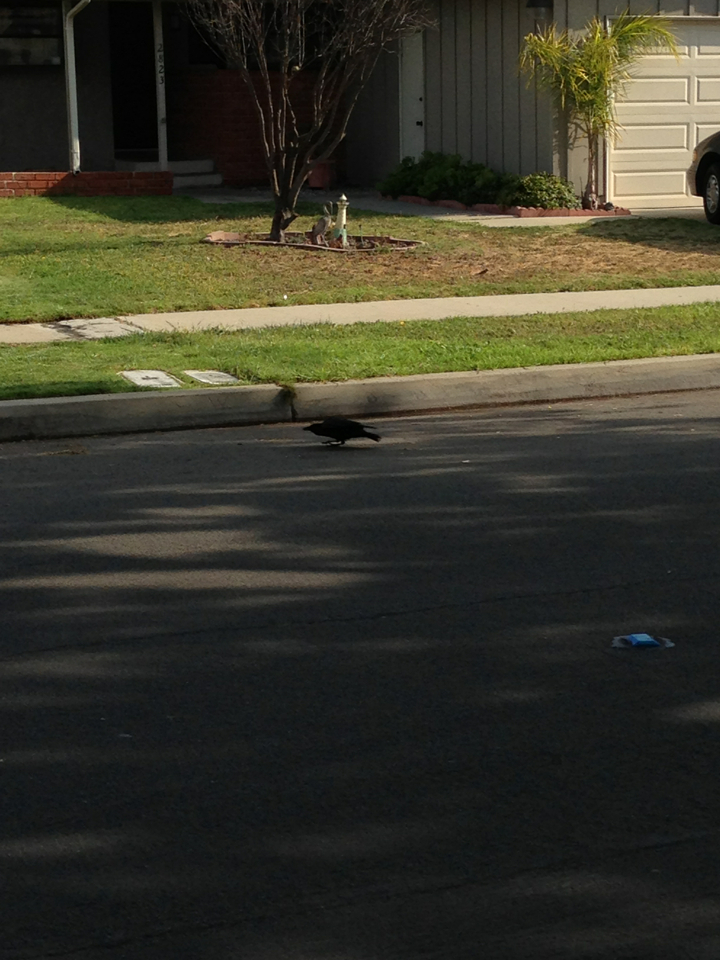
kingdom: Animalia
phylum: Chordata
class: Aves
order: Passeriformes
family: Corvidae
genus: Corvus
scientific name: Corvus brachyrhynchos
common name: American crow
